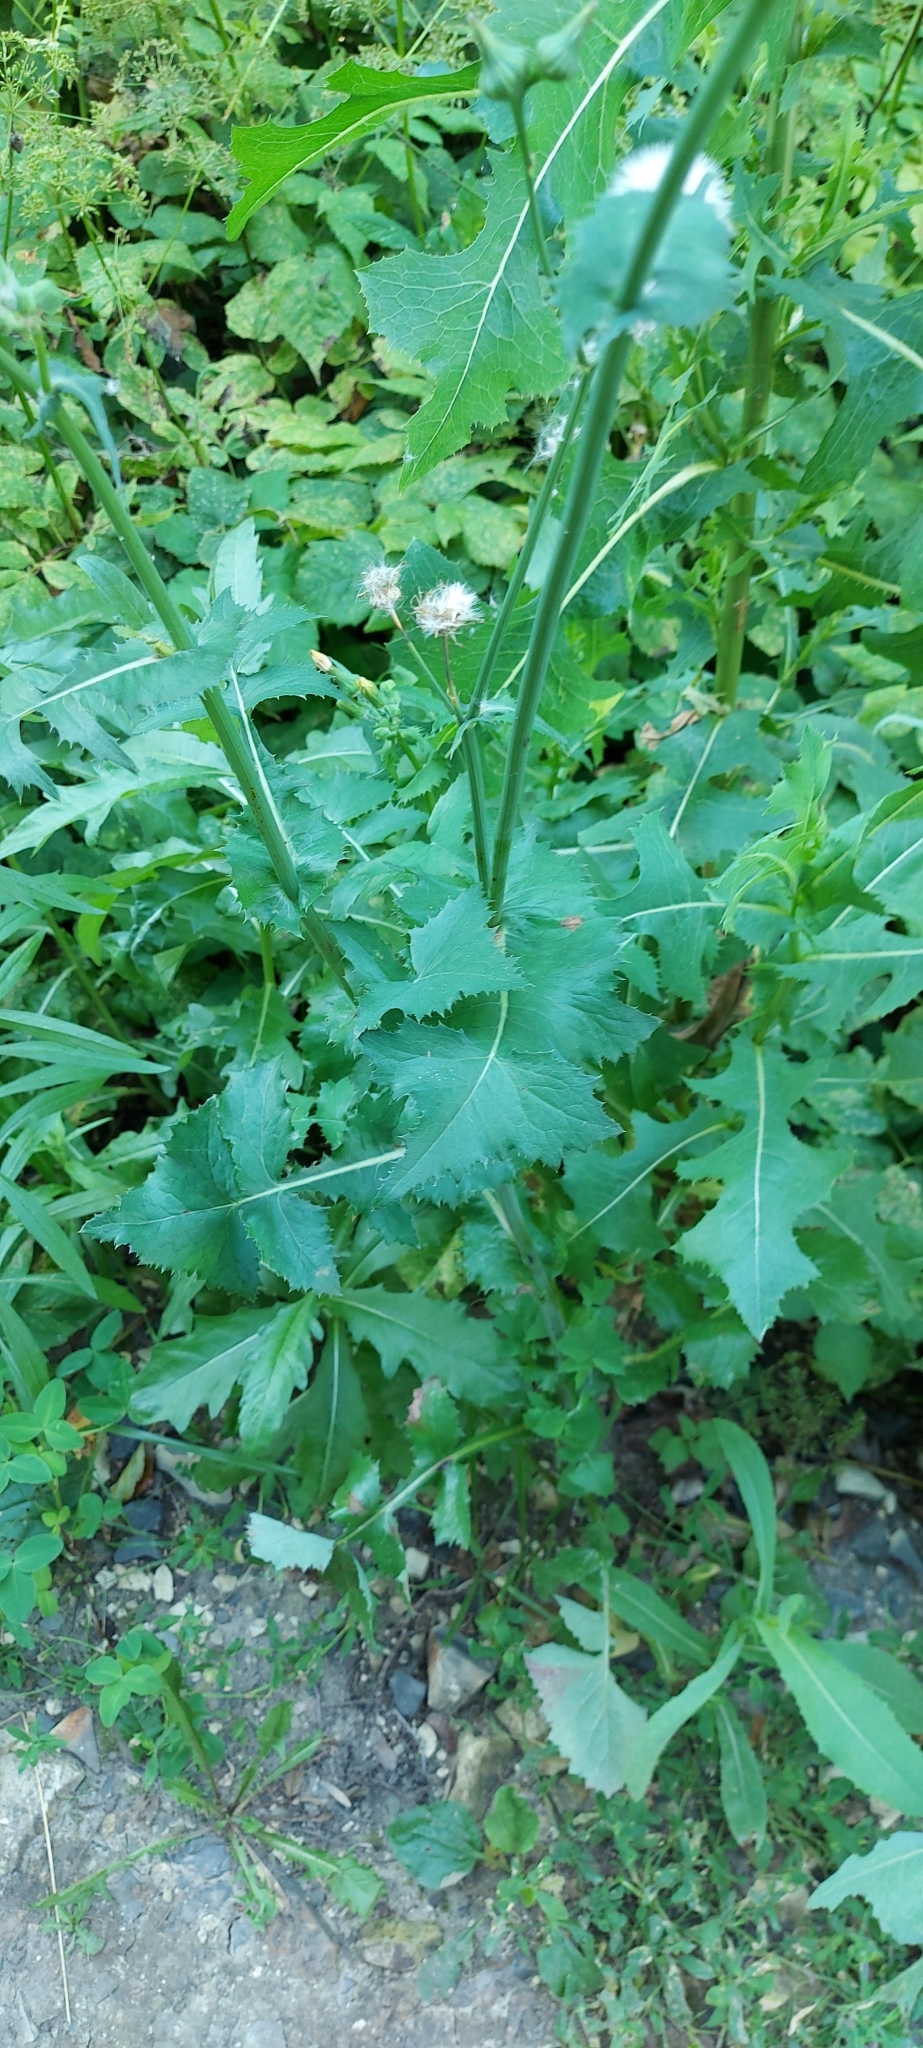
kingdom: Plantae
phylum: Tracheophyta
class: Magnoliopsida
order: Asterales
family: Asteraceae
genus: Sonchus
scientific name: Sonchus oleraceus
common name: Common sowthistle
